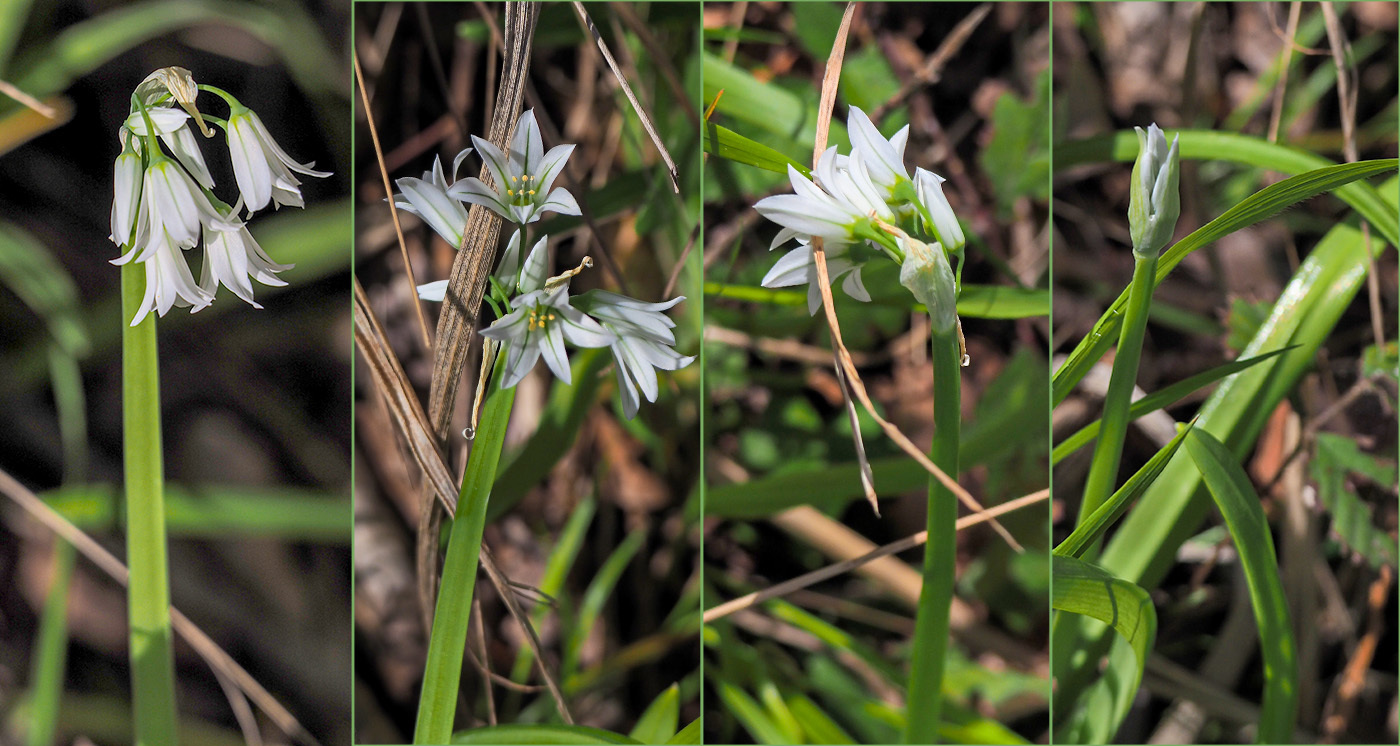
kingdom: Plantae
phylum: Tracheophyta
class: Liliopsida
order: Asparagales
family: Amaryllidaceae
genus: Allium
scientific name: Allium triquetrum
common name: Three-cornered garlic
